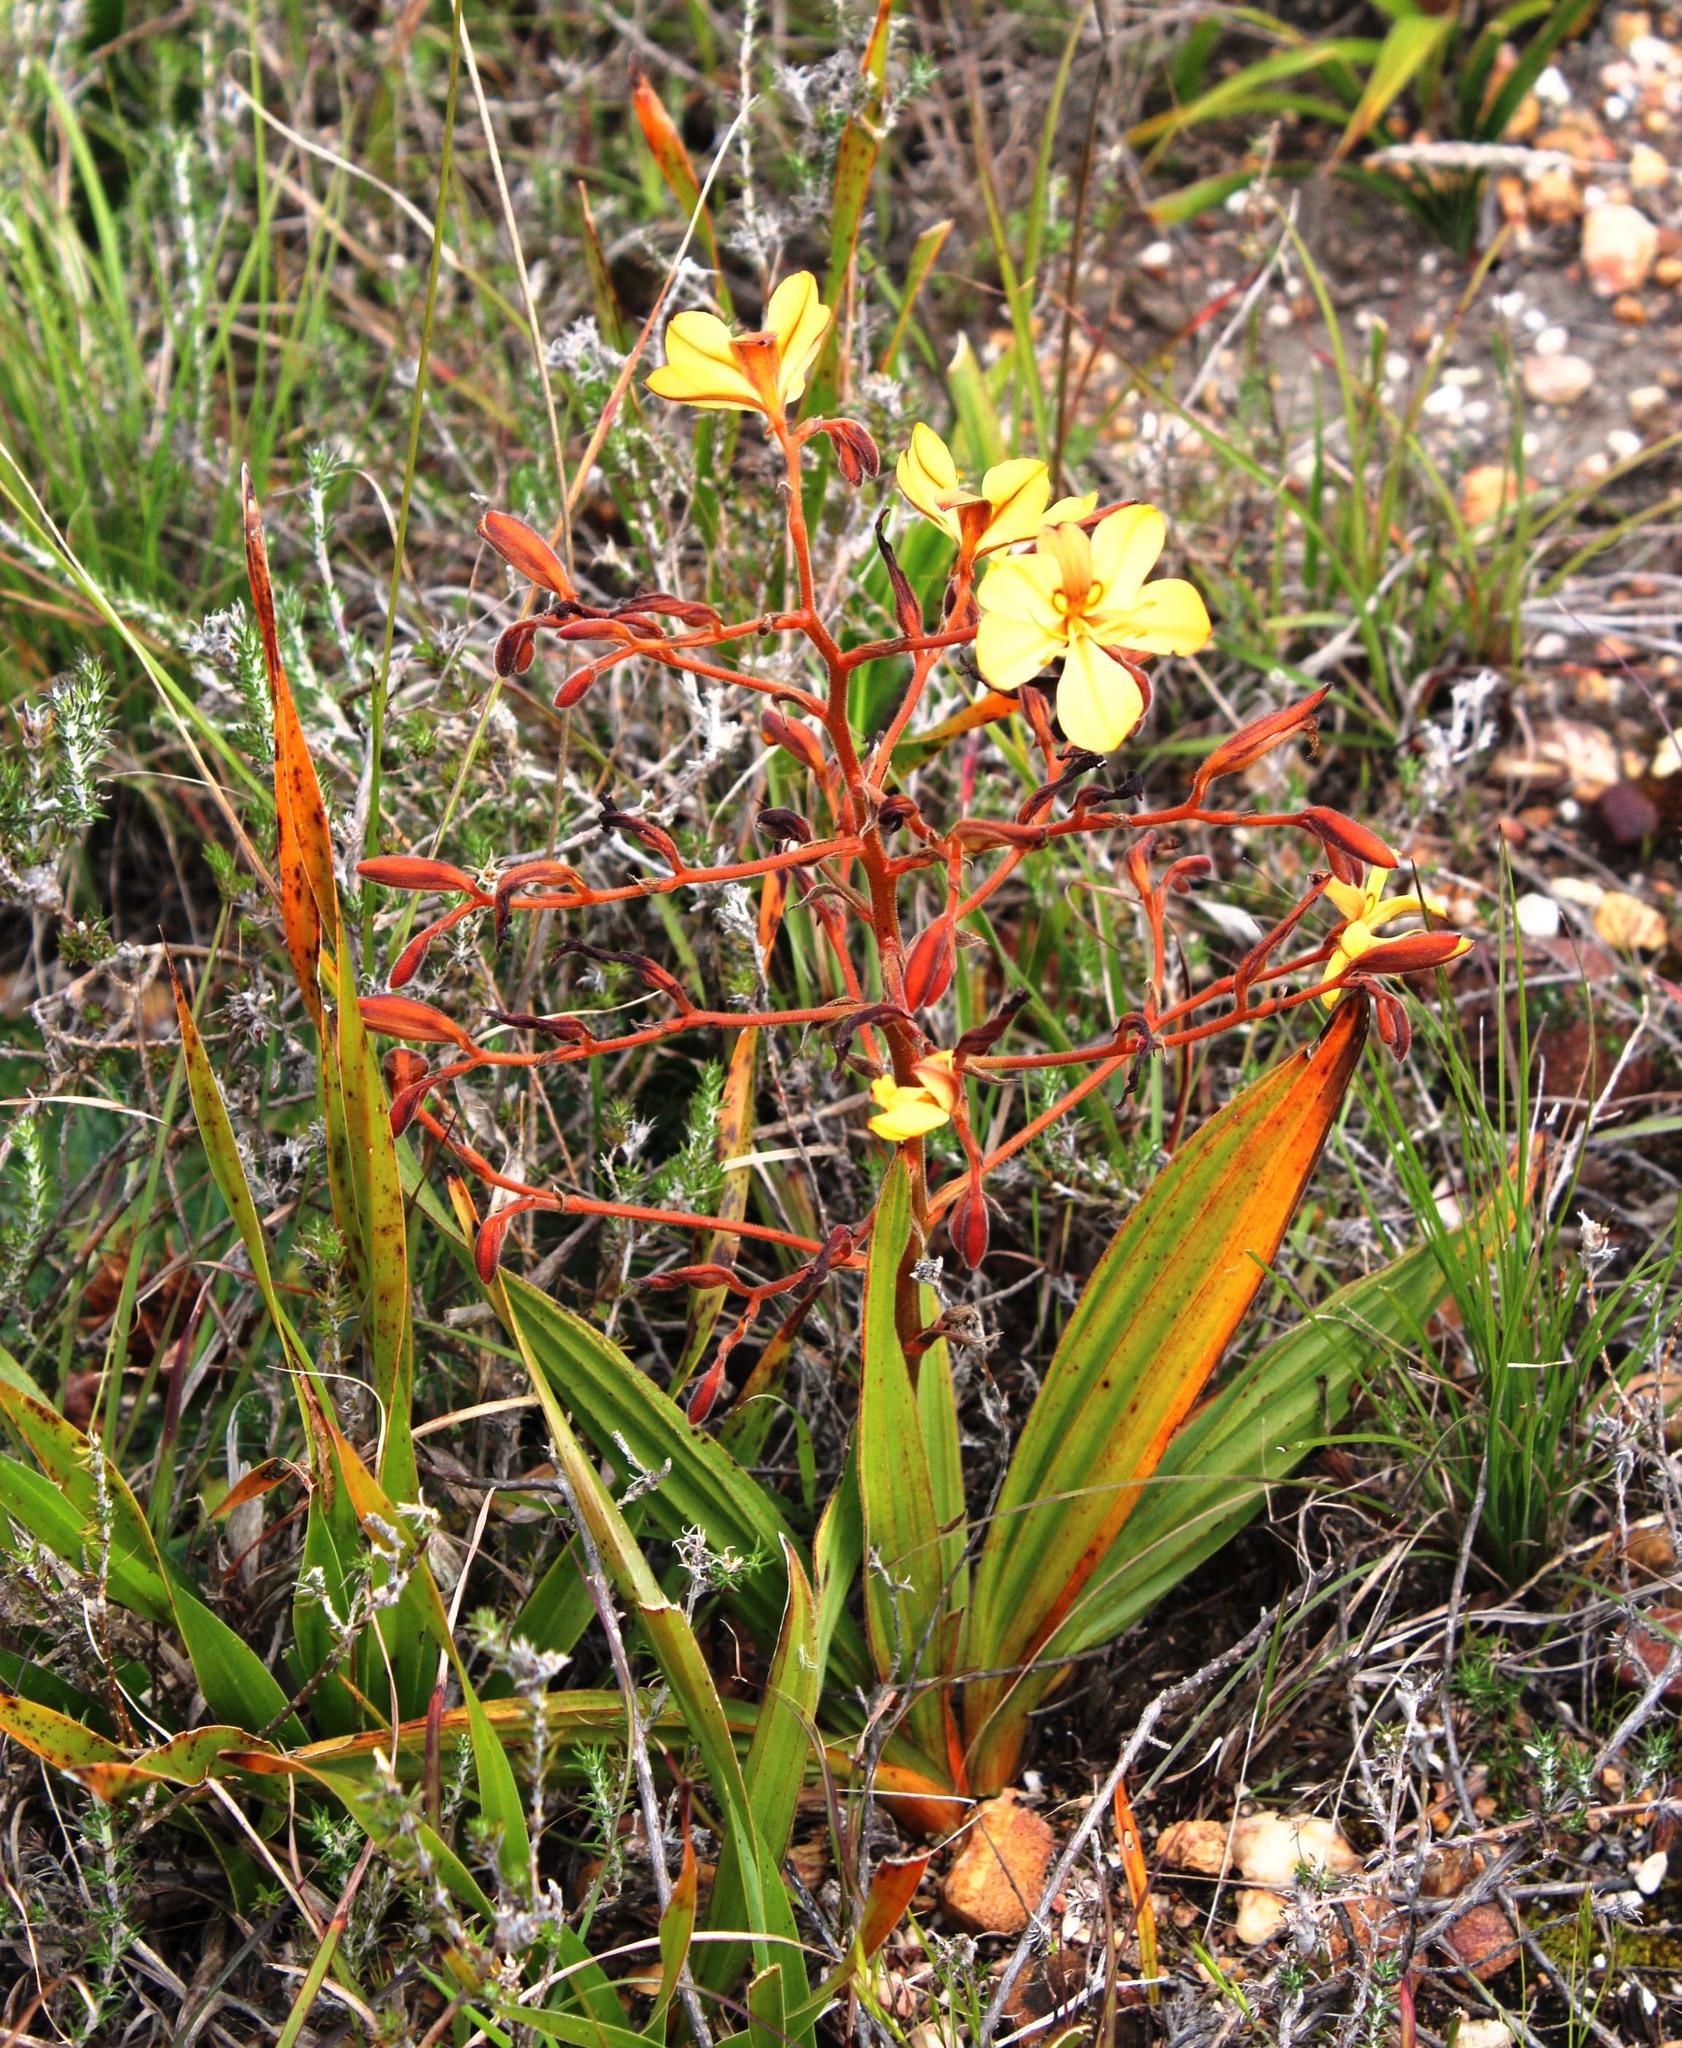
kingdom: Plantae
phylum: Tracheophyta
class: Liliopsida
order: Commelinales
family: Haemodoraceae
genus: Wachendorfia
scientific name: Wachendorfia paniculata
